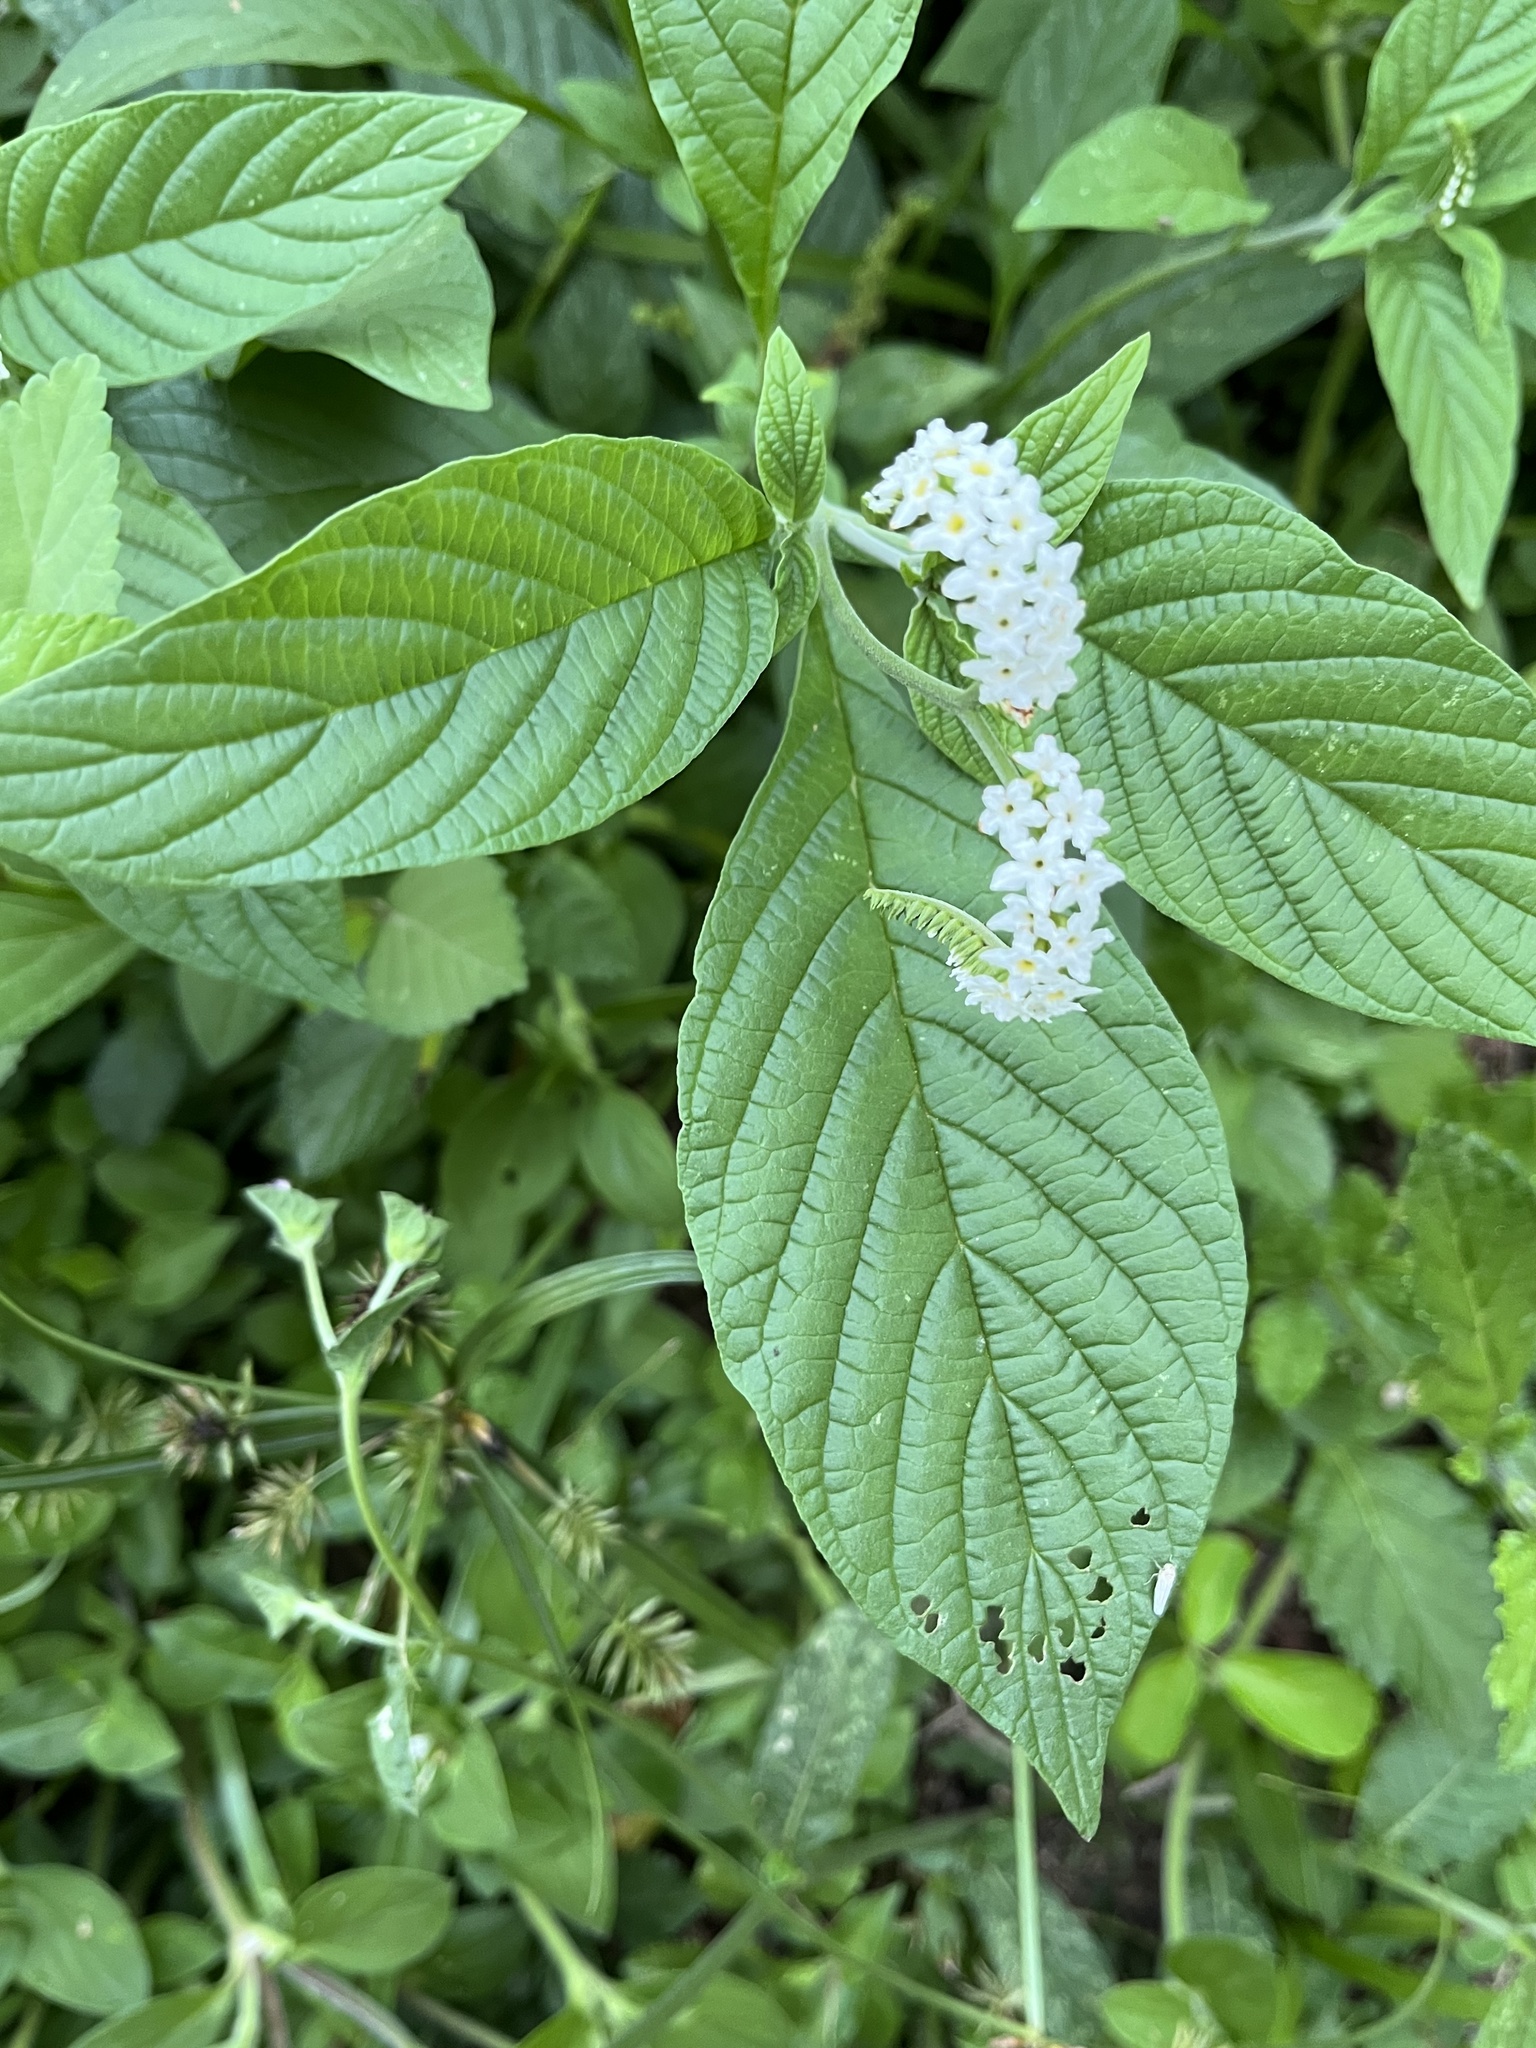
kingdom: Plantae
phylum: Tracheophyta
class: Magnoliopsida
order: Boraginales
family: Heliotropiaceae
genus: Heliotropium
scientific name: Heliotropium transalpinum
